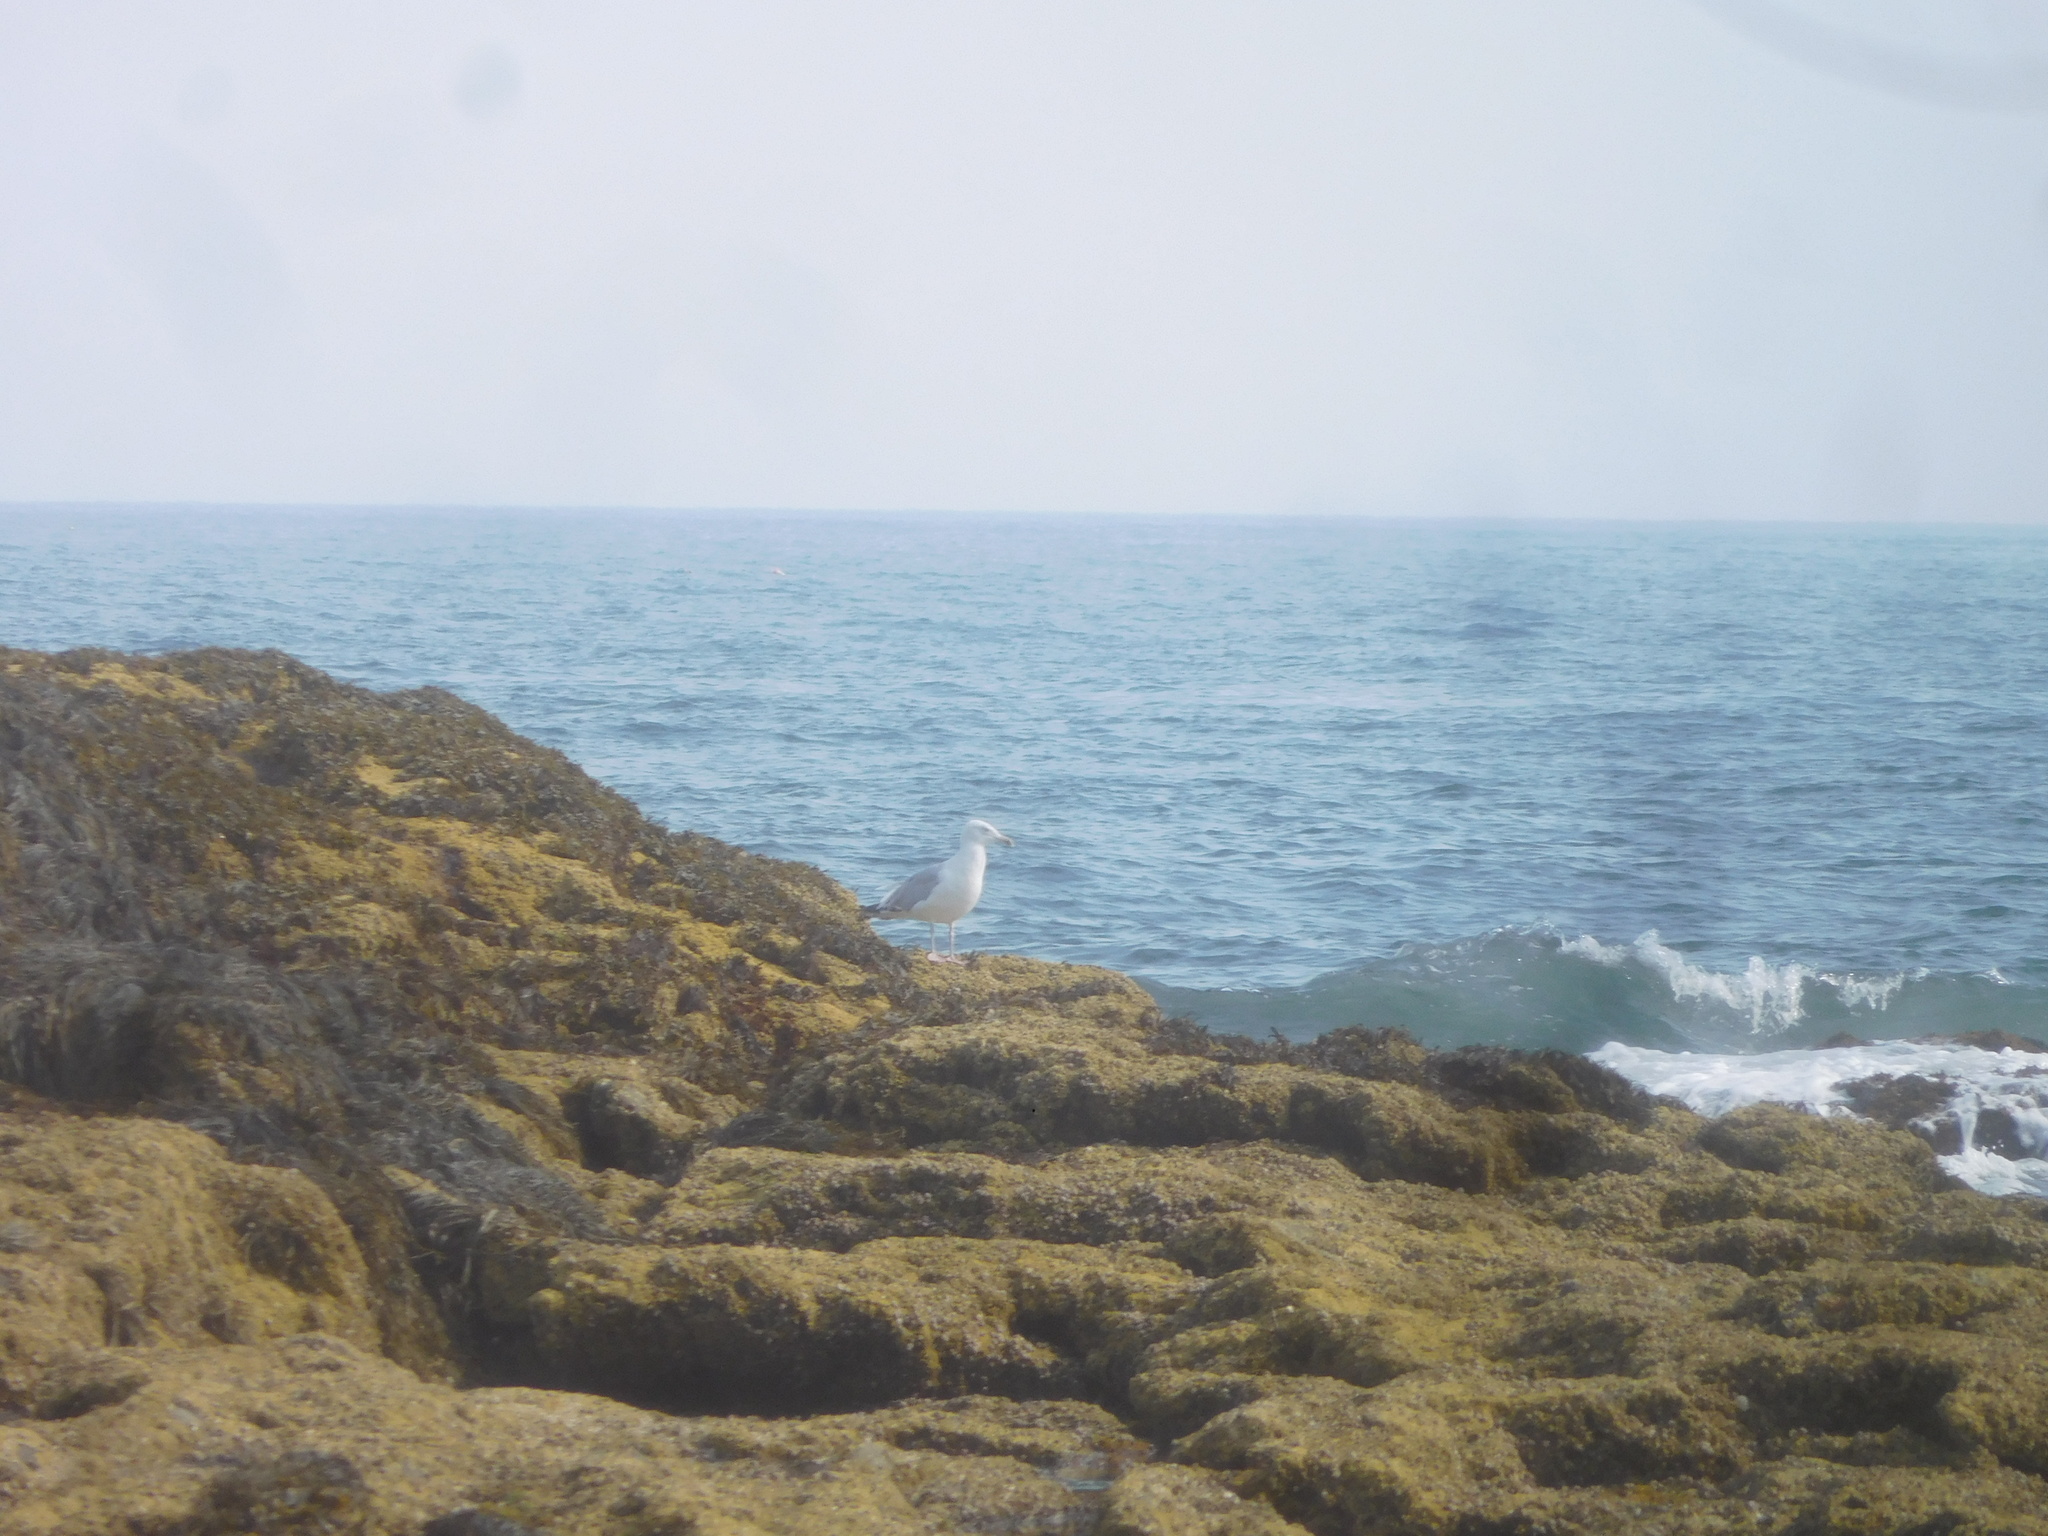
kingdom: Animalia
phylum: Chordata
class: Aves
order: Charadriiformes
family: Laridae
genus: Larus
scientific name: Larus argentatus
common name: Herring gull
